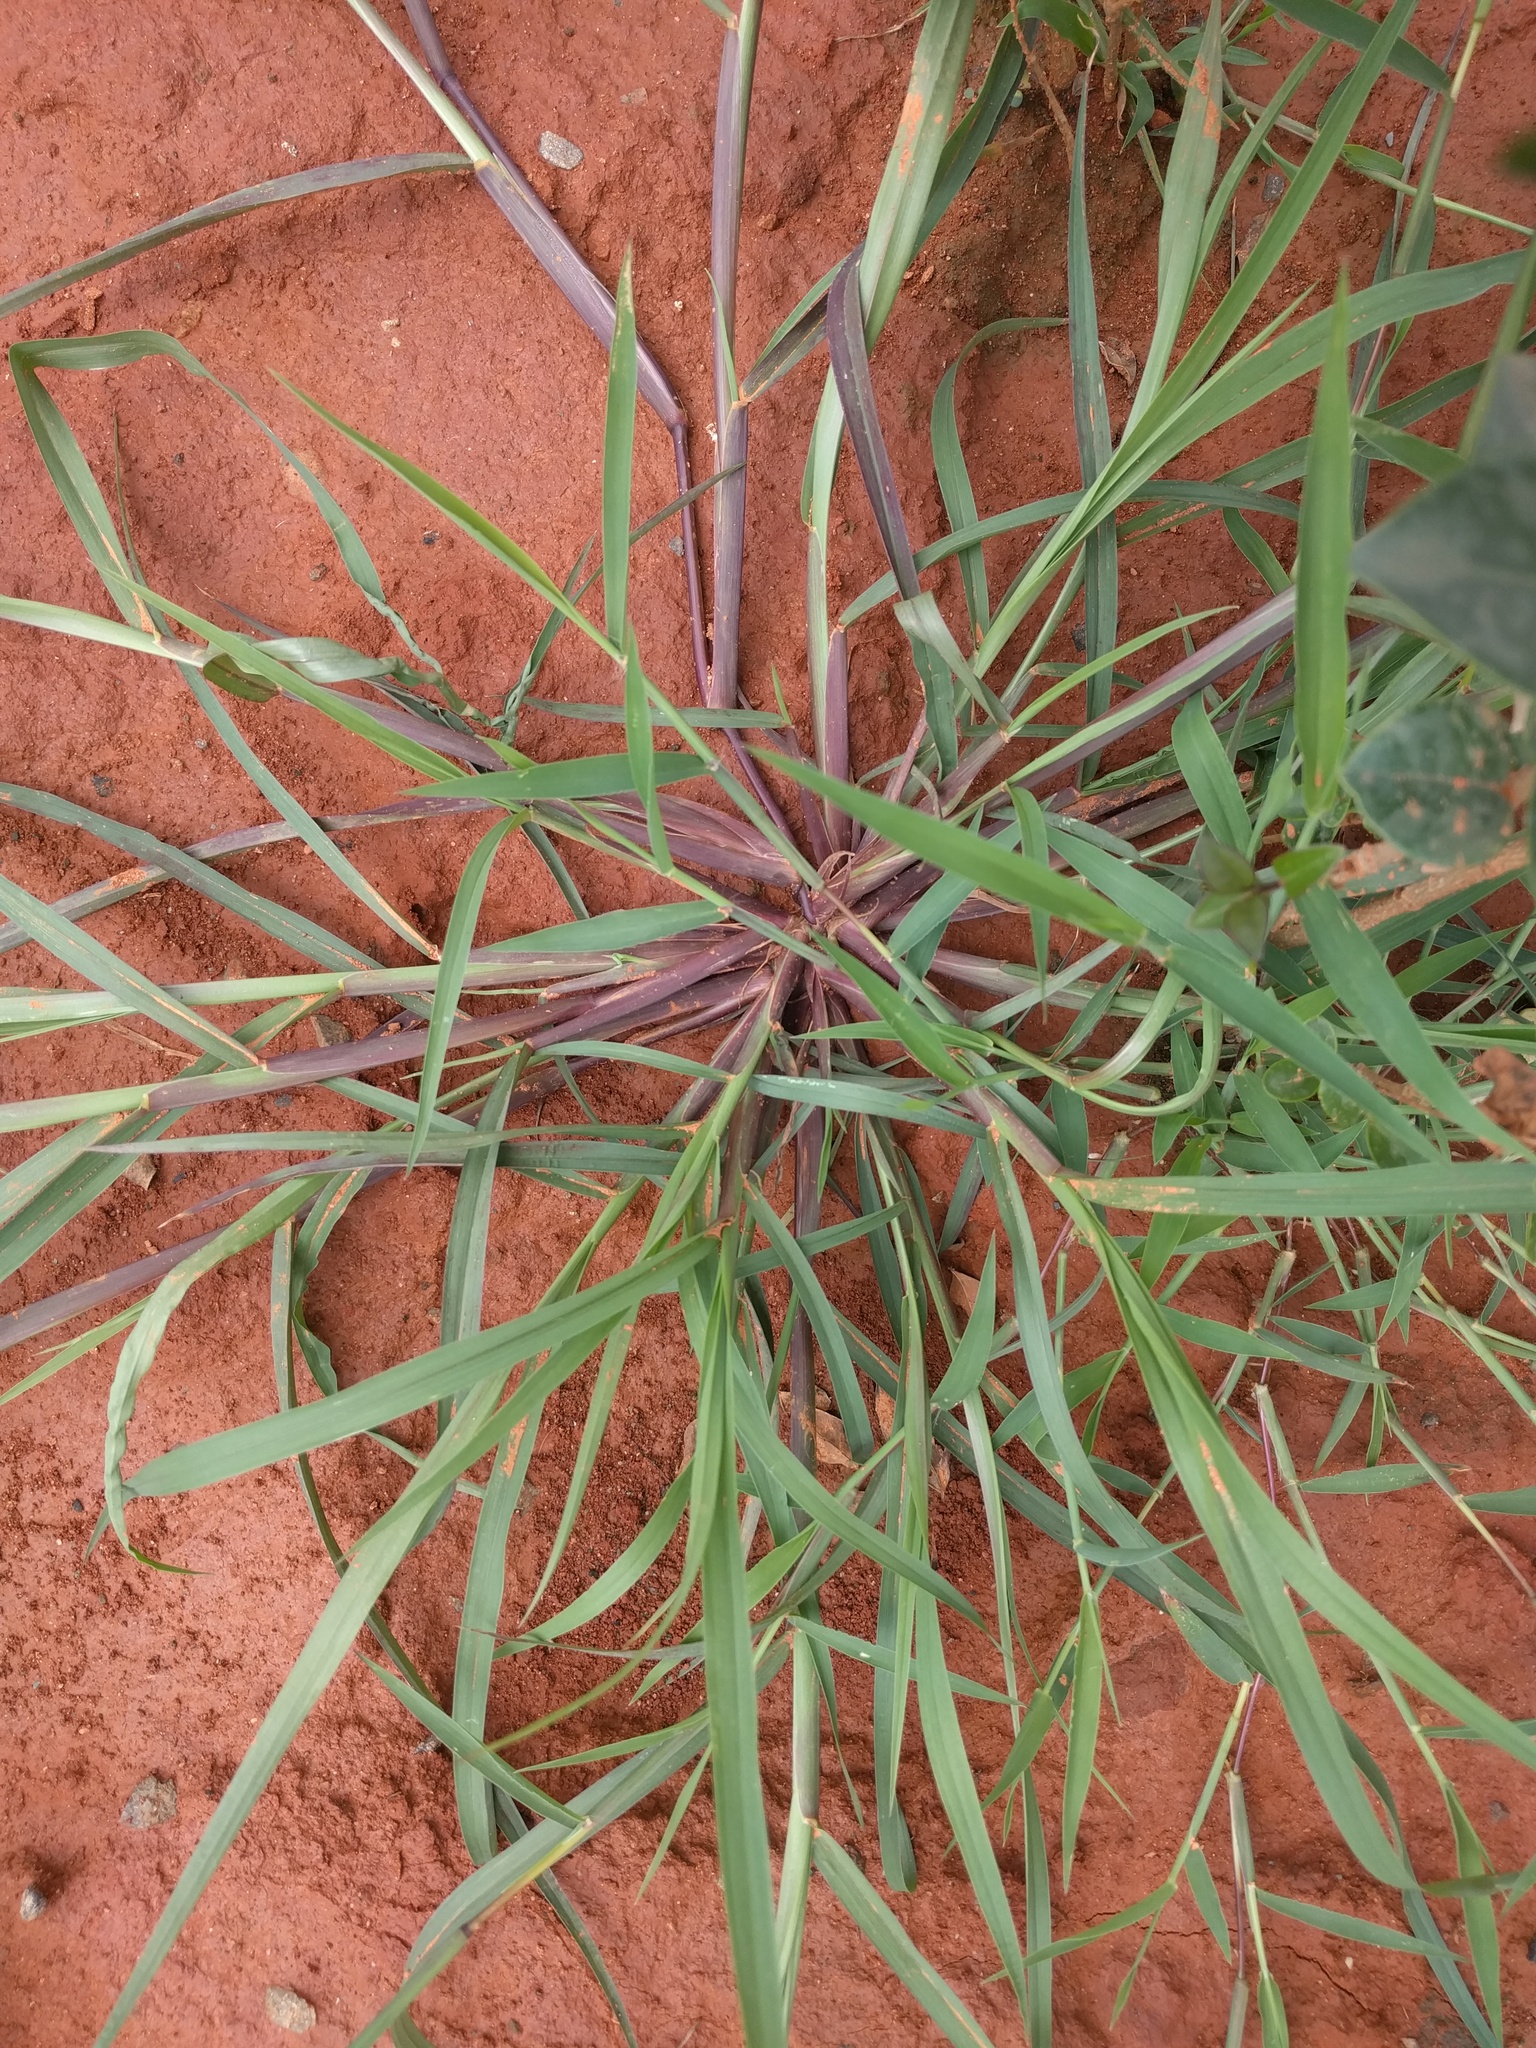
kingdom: Plantae
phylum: Tracheophyta
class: Liliopsida
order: Poales
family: Poaceae
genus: Cenchrus
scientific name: Cenchrus echinatus
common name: Southern sandbur
